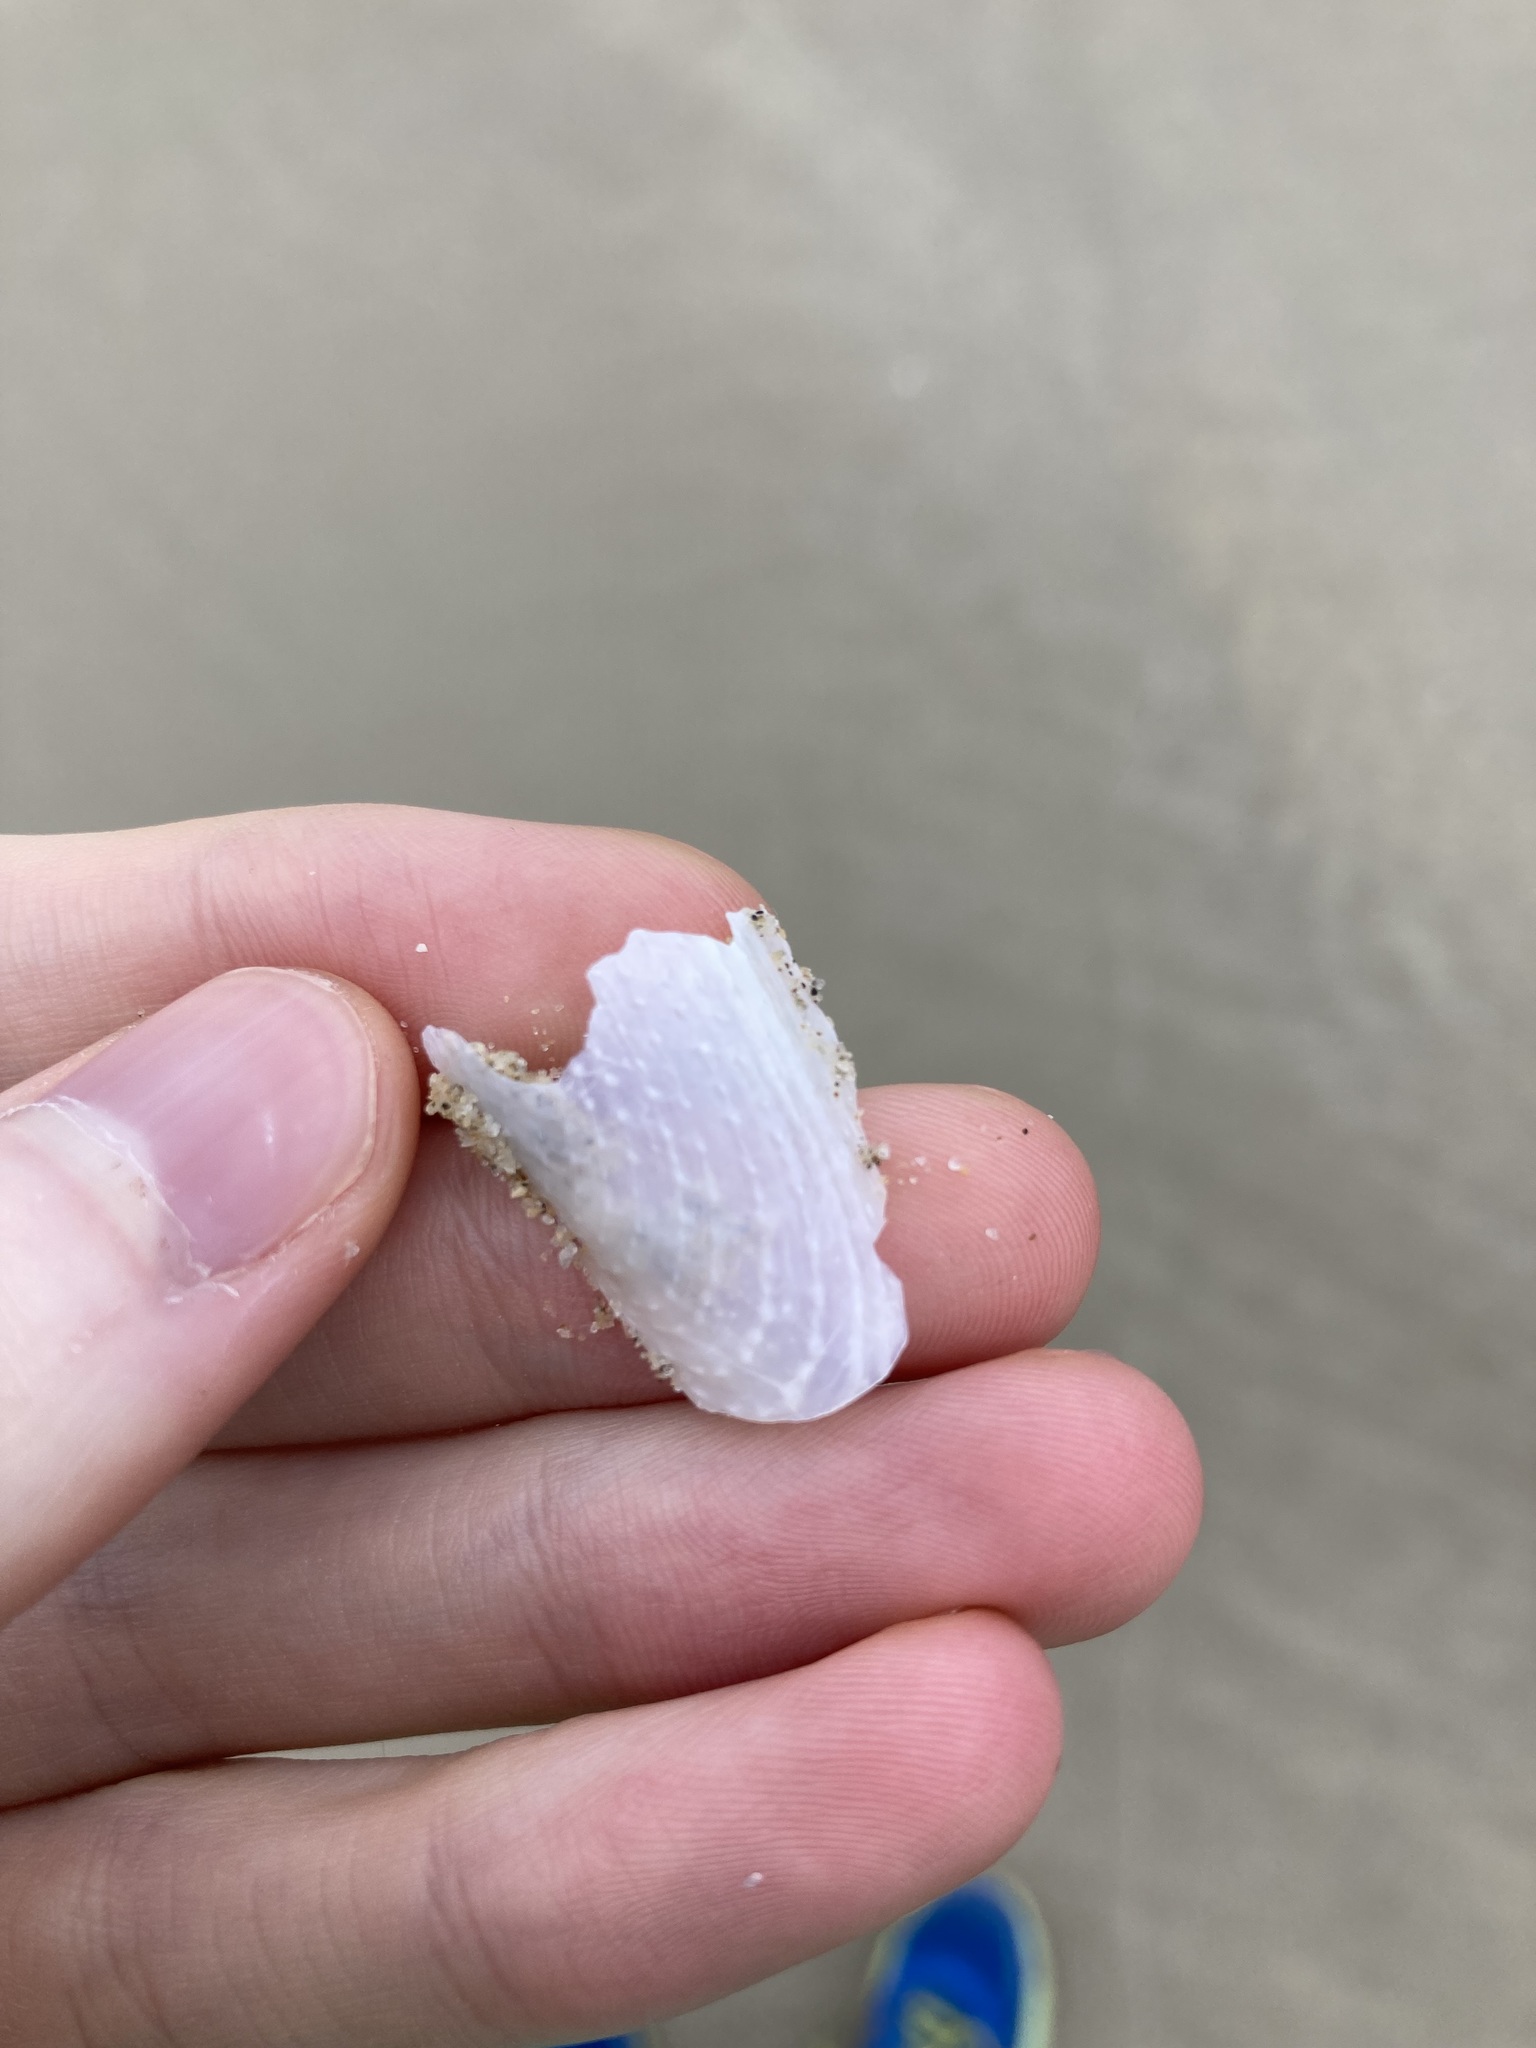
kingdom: Animalia
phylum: Mollusca
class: Bivalvia
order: Myida
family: Pholadidae
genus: Barnea
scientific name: Barnea australasiae
